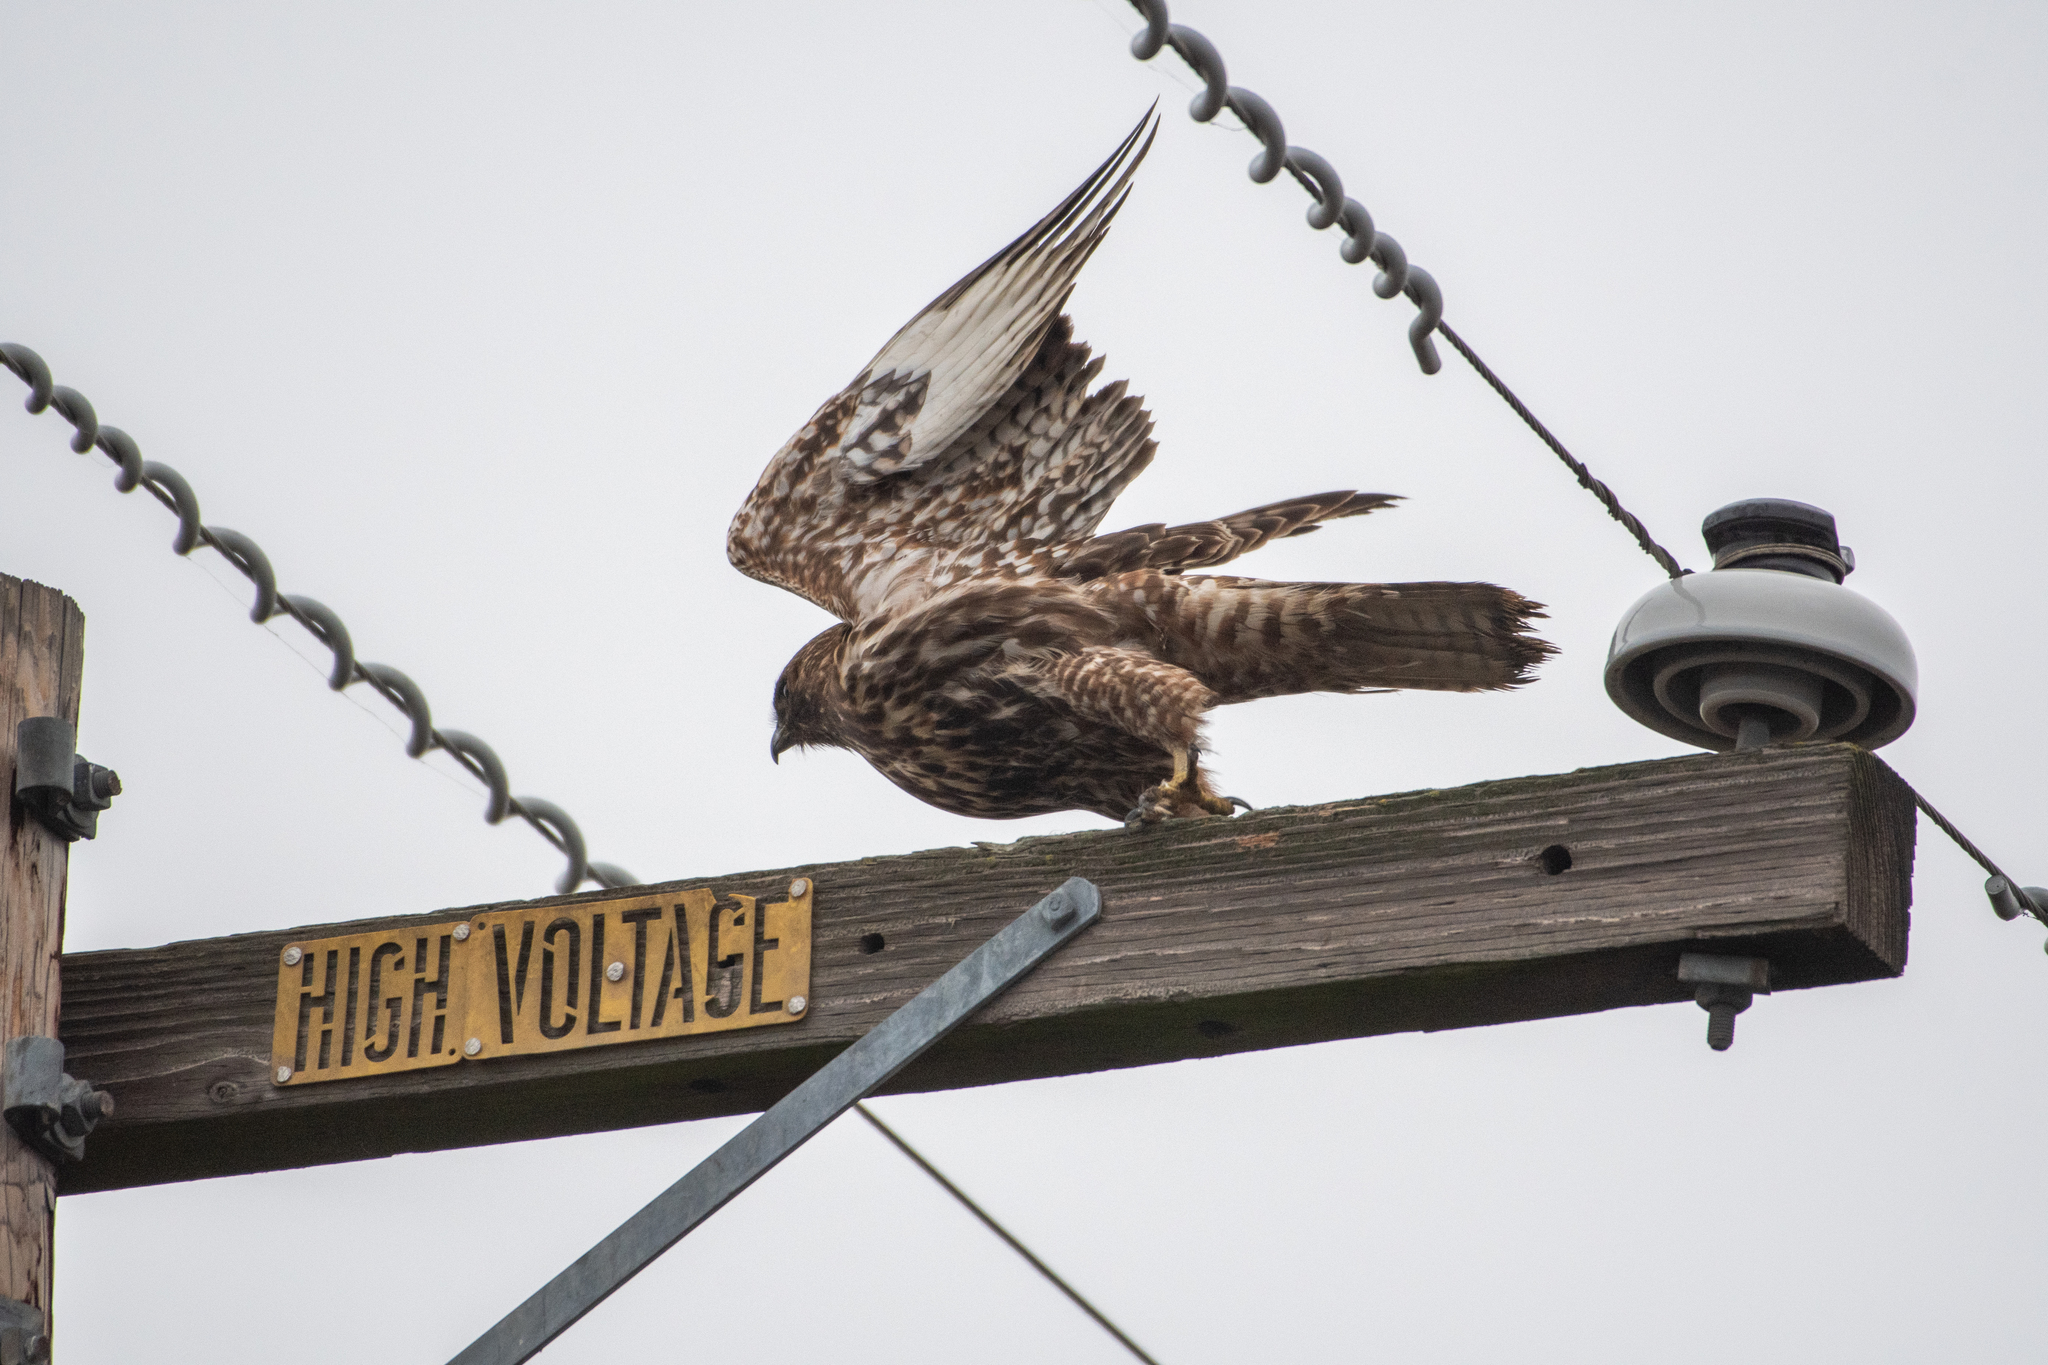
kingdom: Animalia
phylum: Chordata
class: Aves
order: Accipitriformes
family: Accipitridae
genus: Buteo
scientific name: Buteo jamaicensis
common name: Red-tailed hawk
